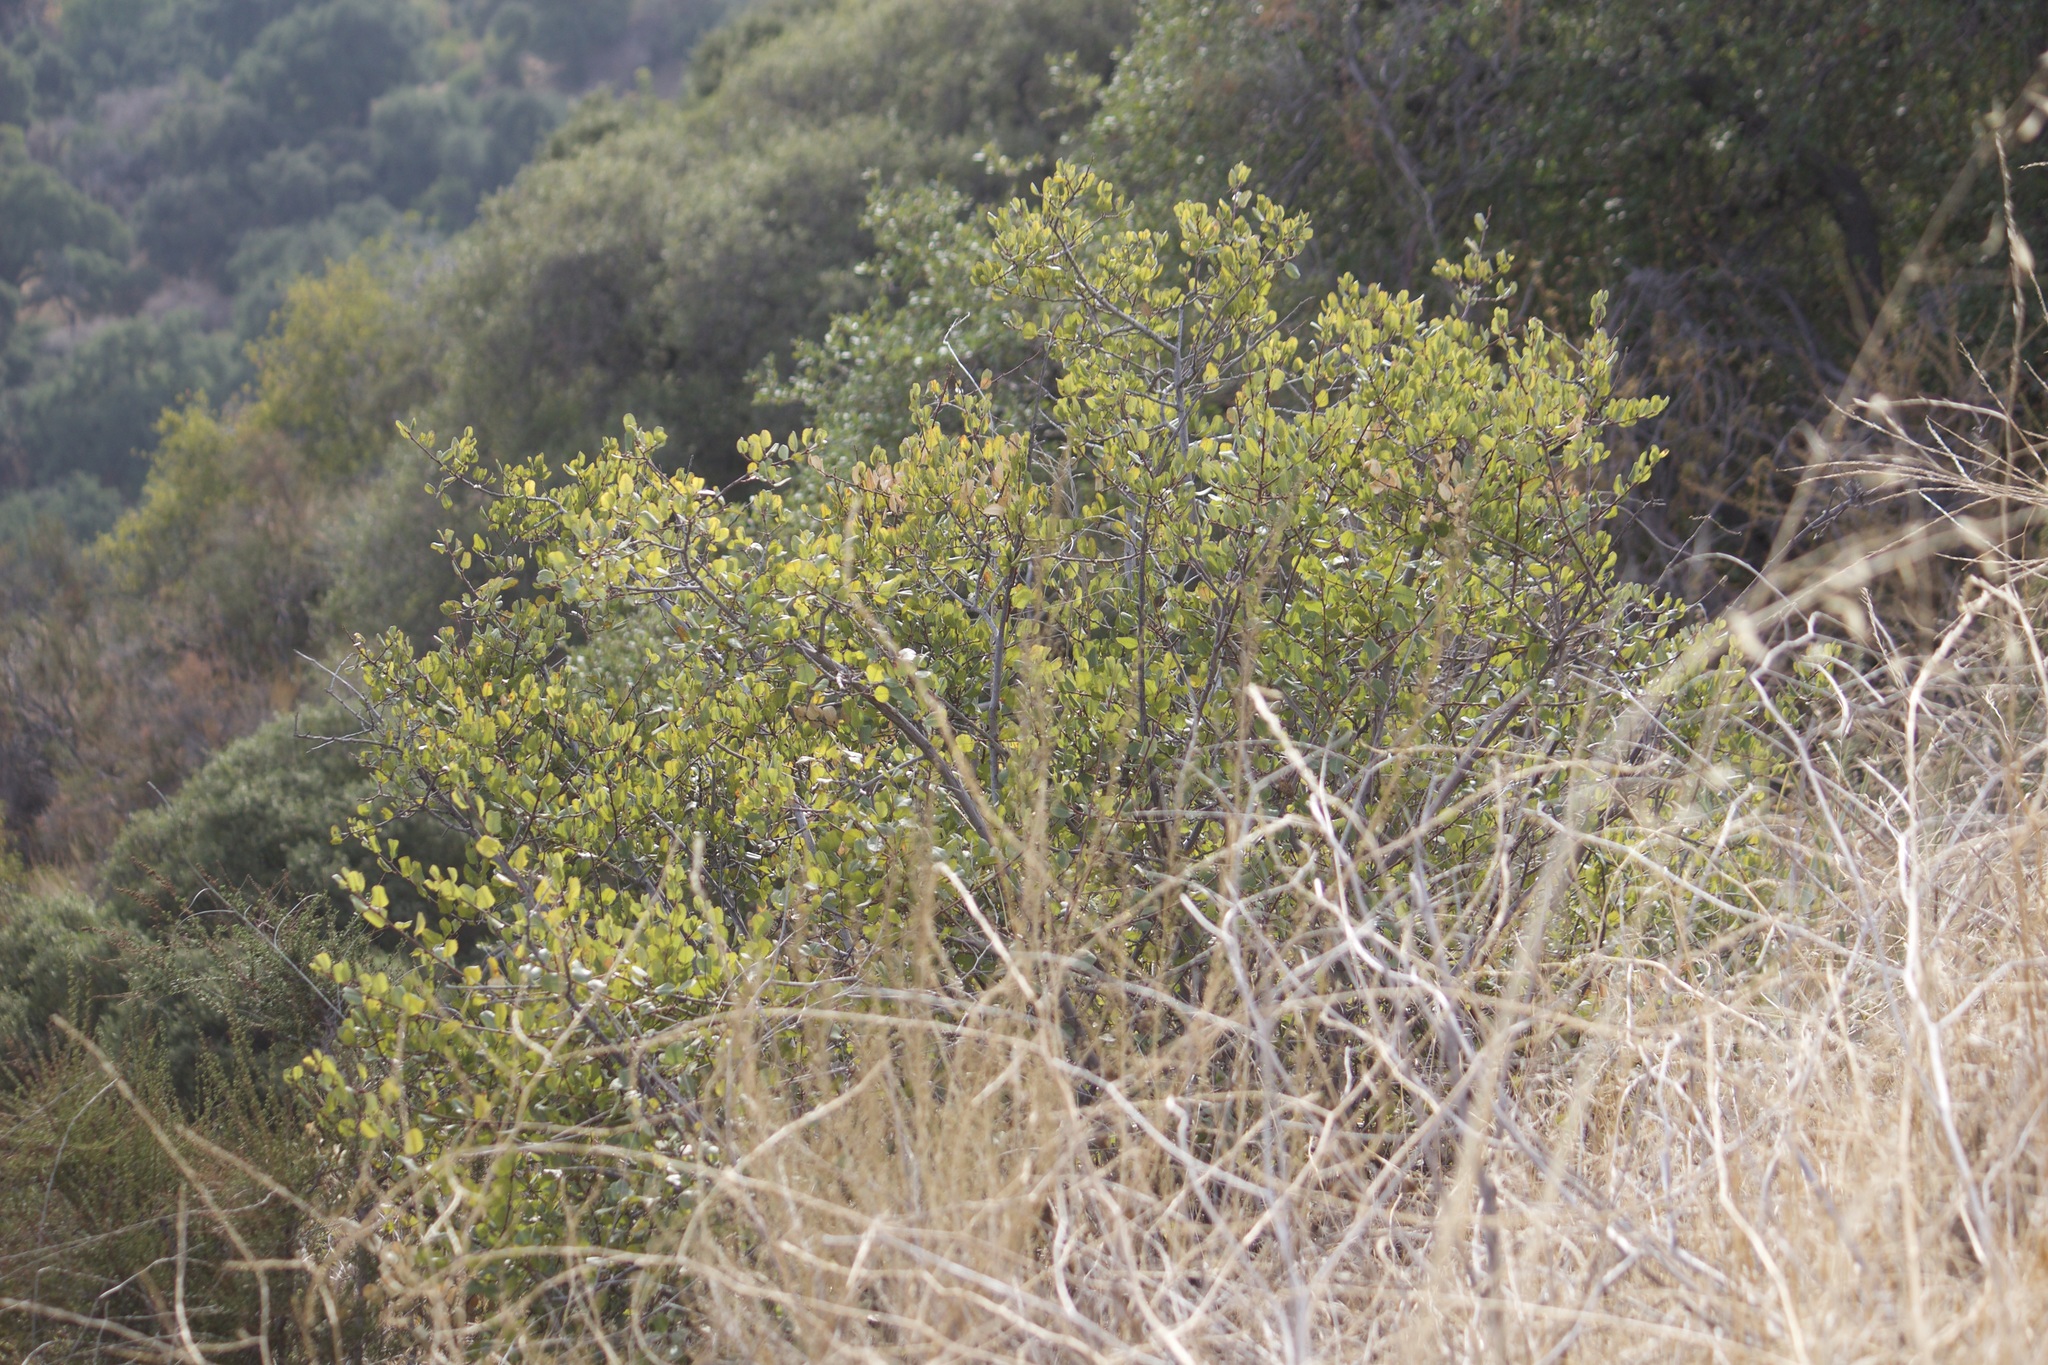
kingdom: Plantae
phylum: Tracheophyta
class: Magnoliopsida
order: Rosales
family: Rhamnaceae
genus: Endotropis
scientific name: Endotropis crocea
